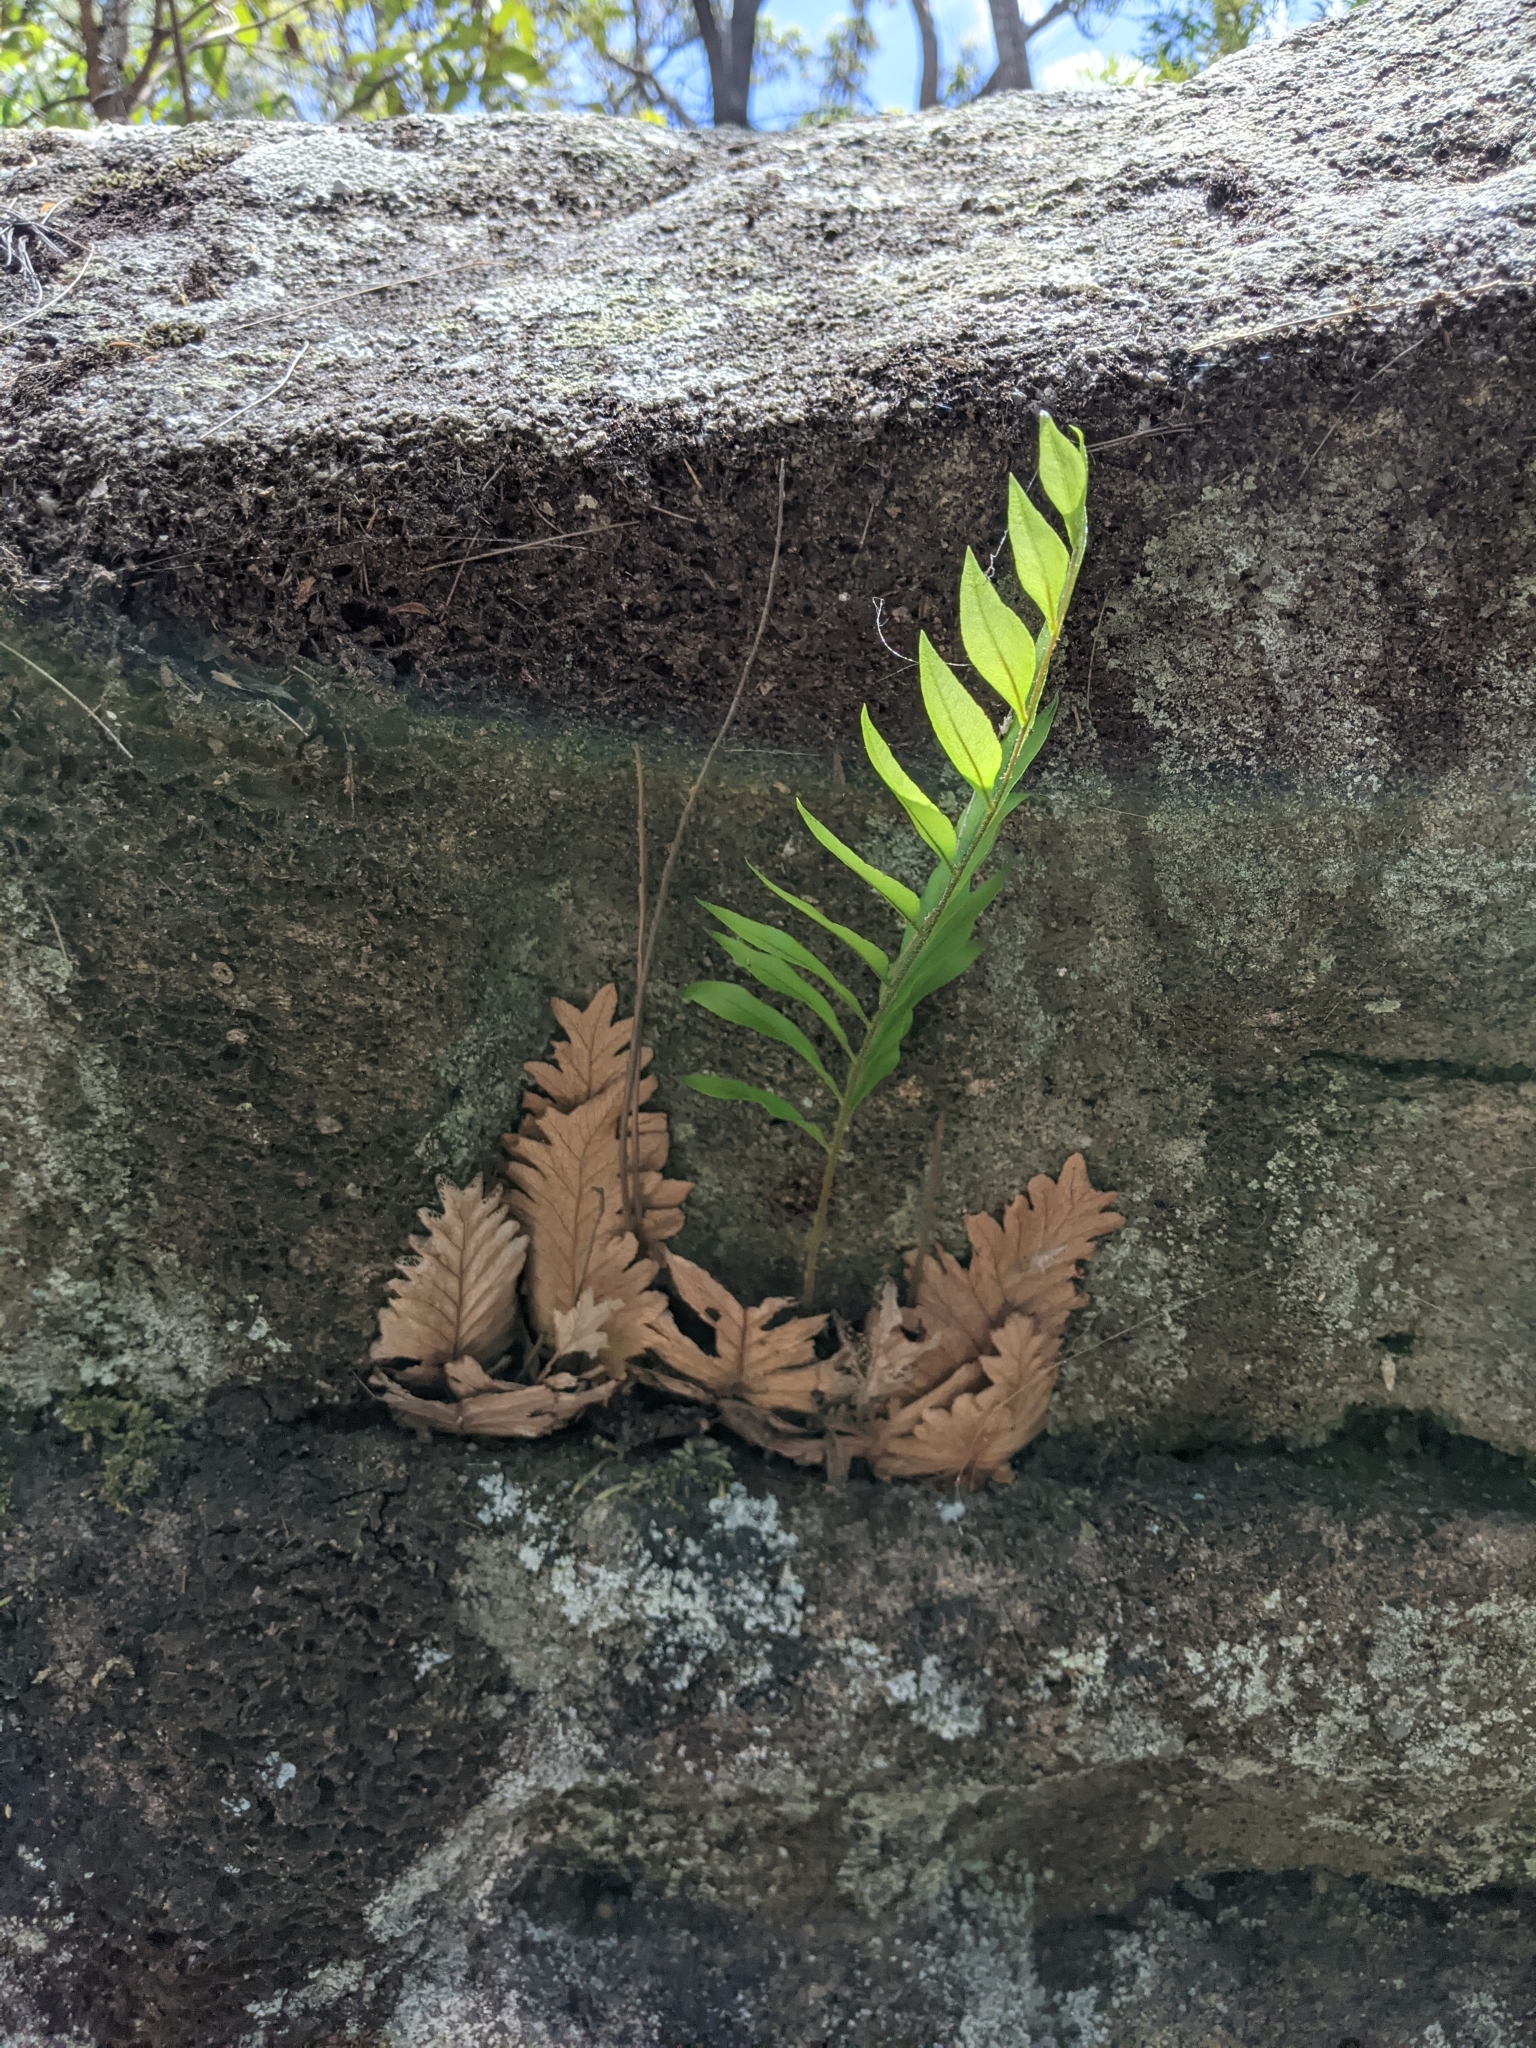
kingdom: Plantae
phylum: Tracheophyta
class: Polypodiopsida
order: Polypodiales
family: Polypodiaceae
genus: Drynaria
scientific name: Drynaria rigidula
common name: Basket fern
